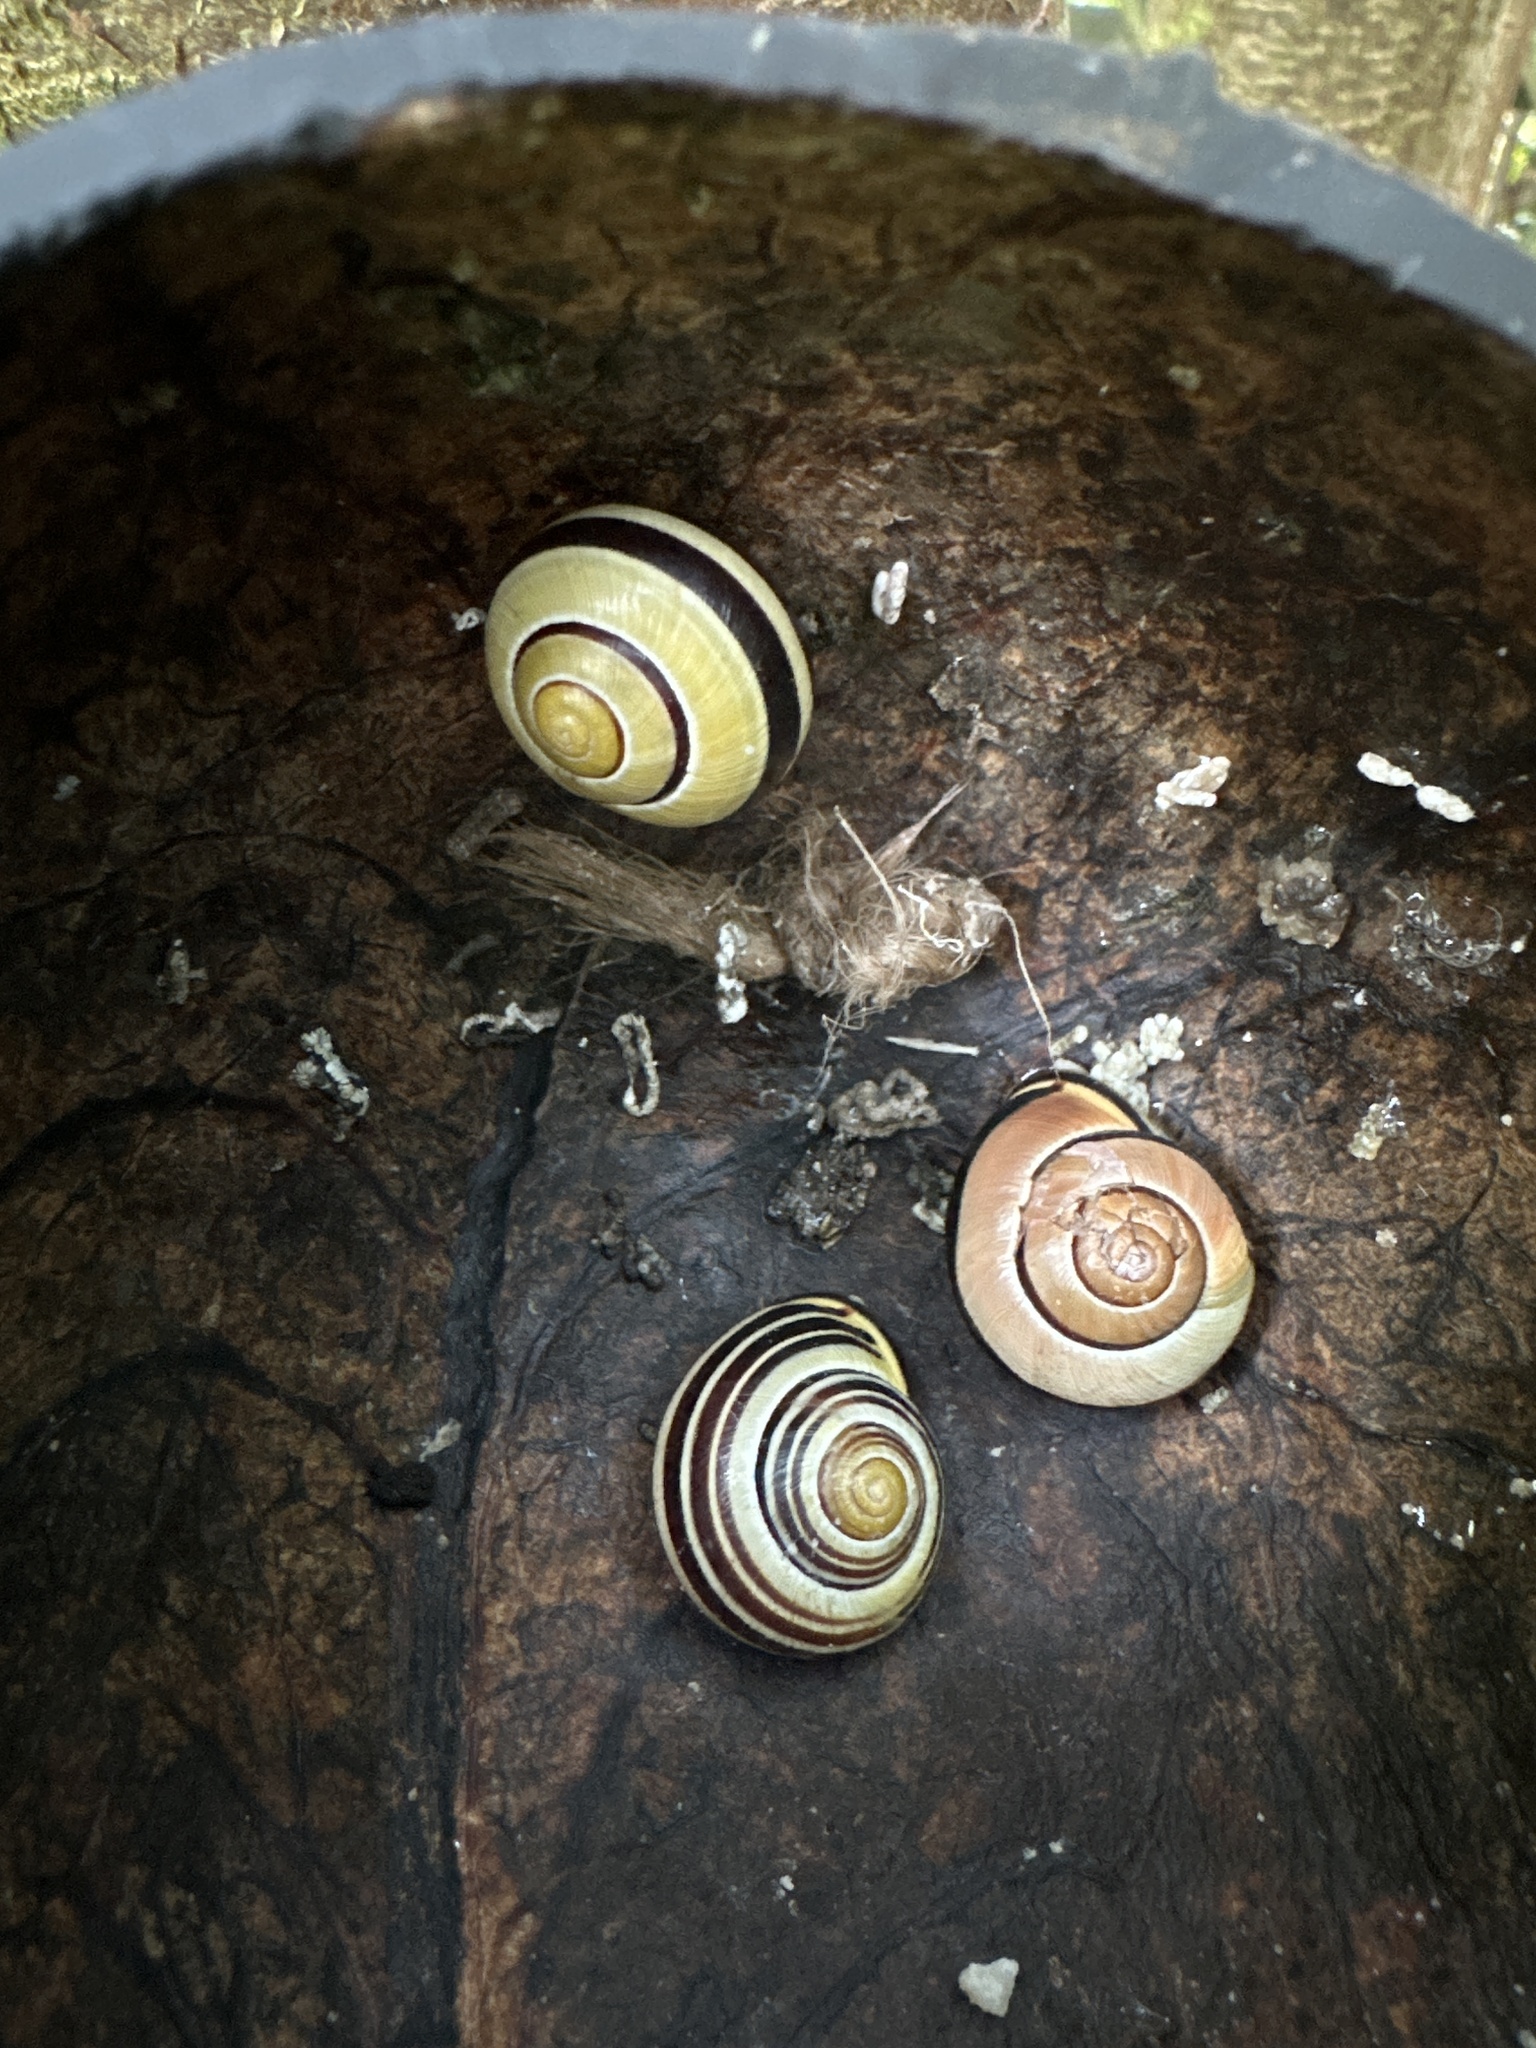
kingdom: Animalia
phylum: Mollusca
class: Gastropoda
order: Stylommatophora
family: Helicidae
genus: Cepaea
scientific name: Cepaea nemoralis
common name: Grovesnail
